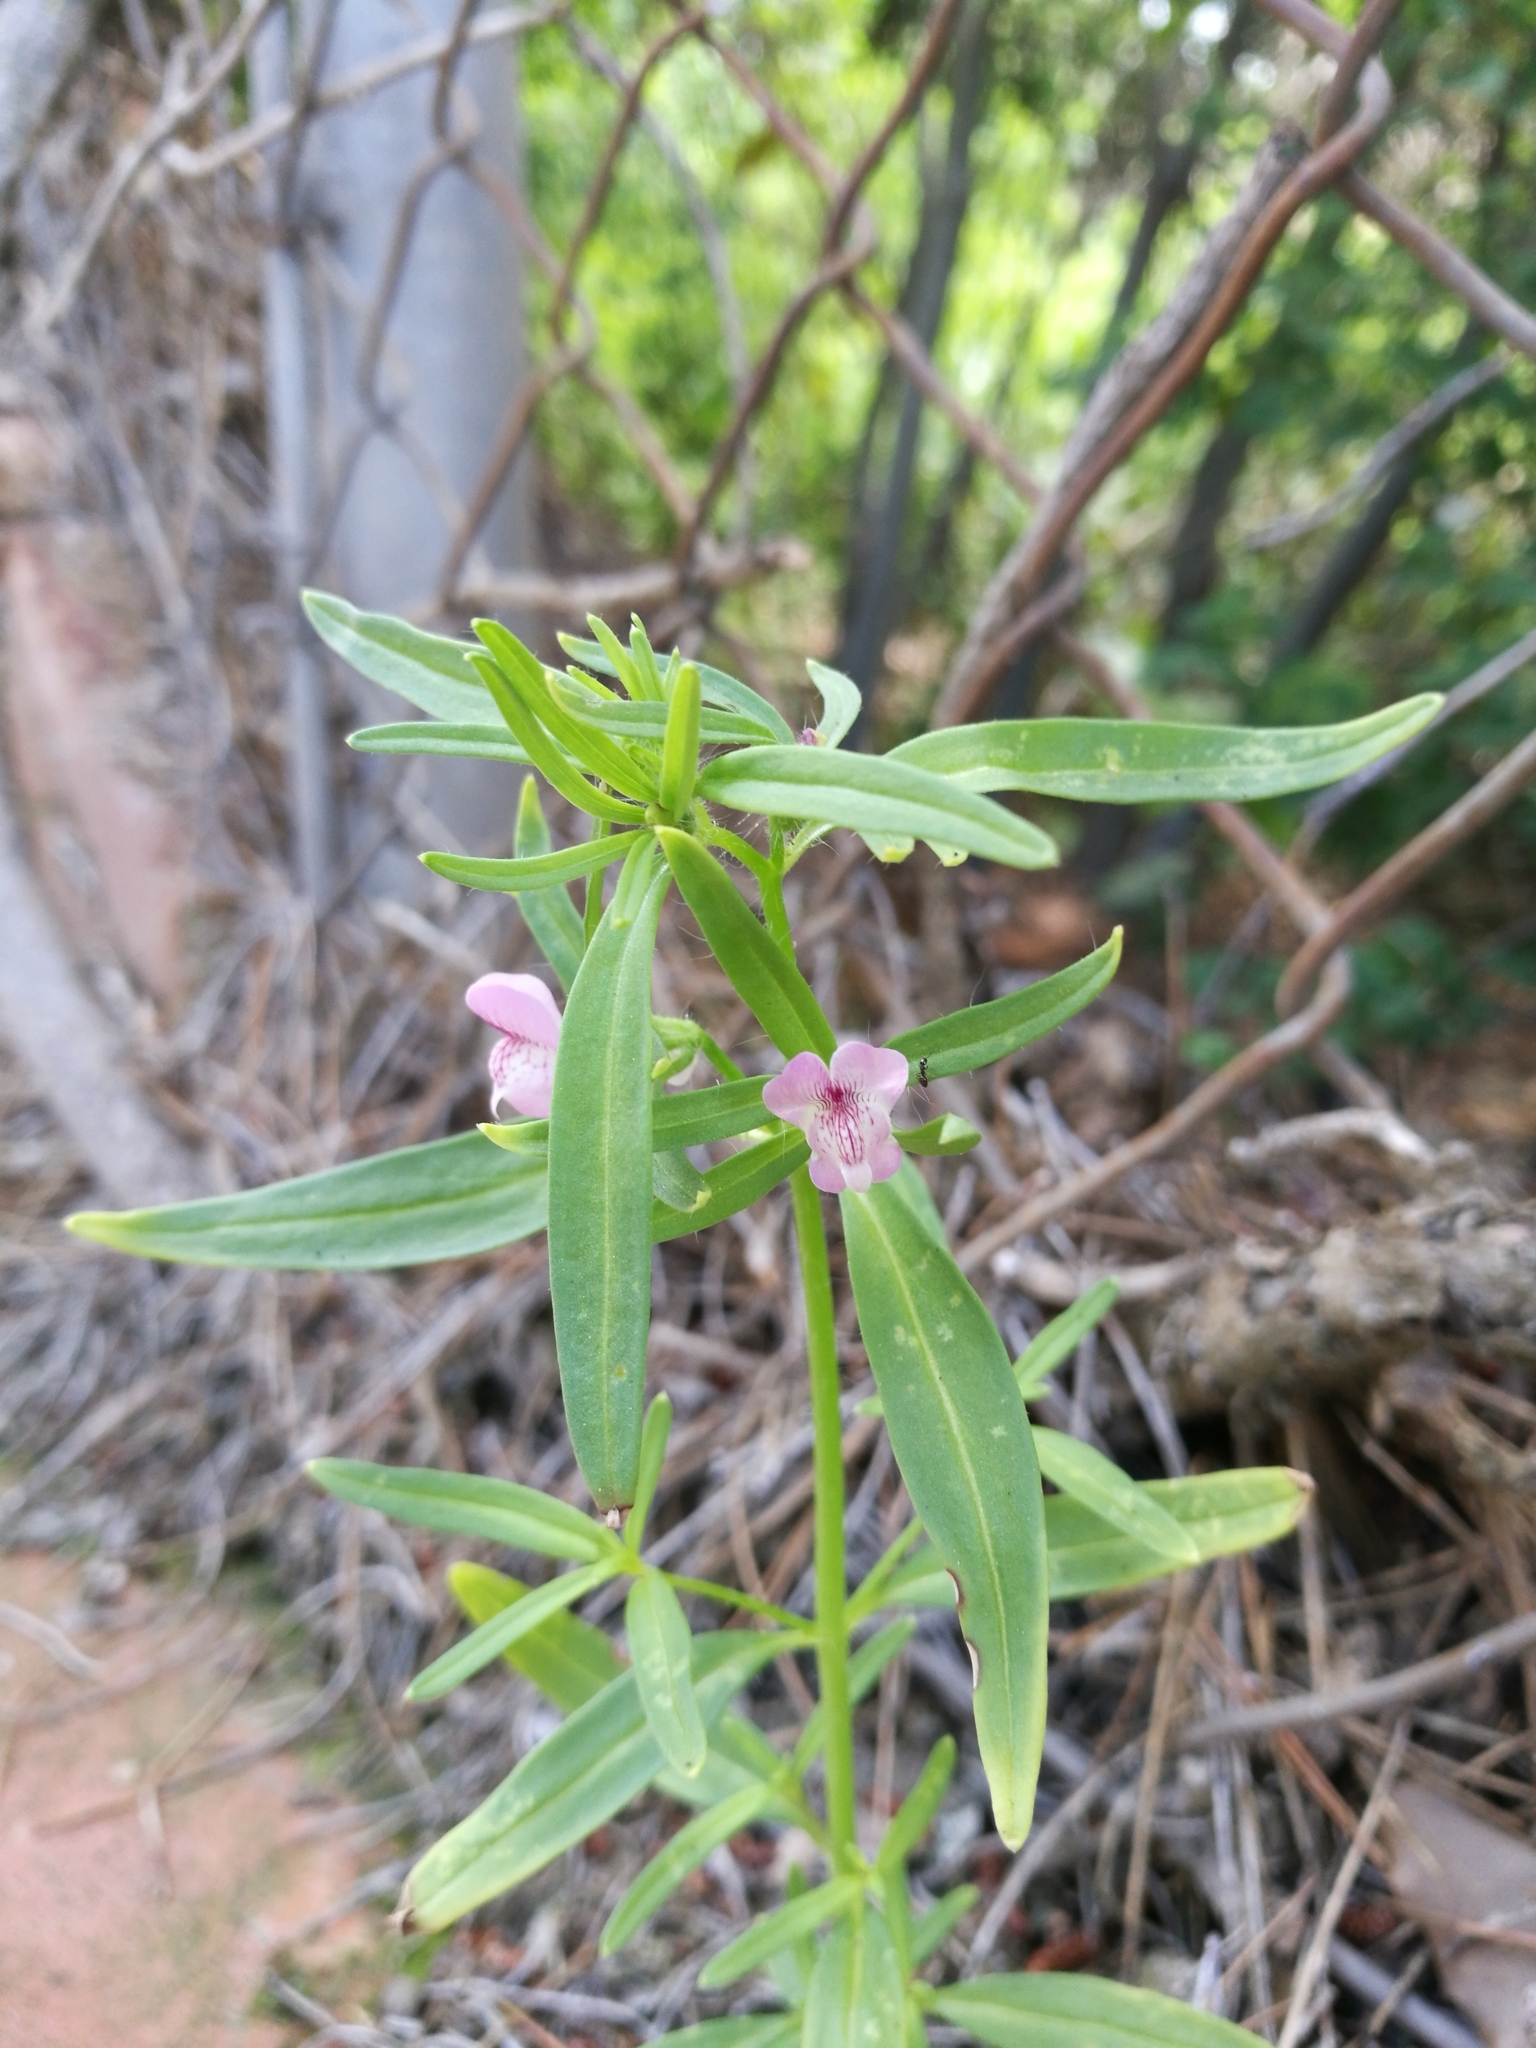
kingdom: Plantae
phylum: Tracheophyta
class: Magnoliopsida
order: Lamiales
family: Plantaginaceae
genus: Misopates
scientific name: Misopates orontium
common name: Weasel's-snout
